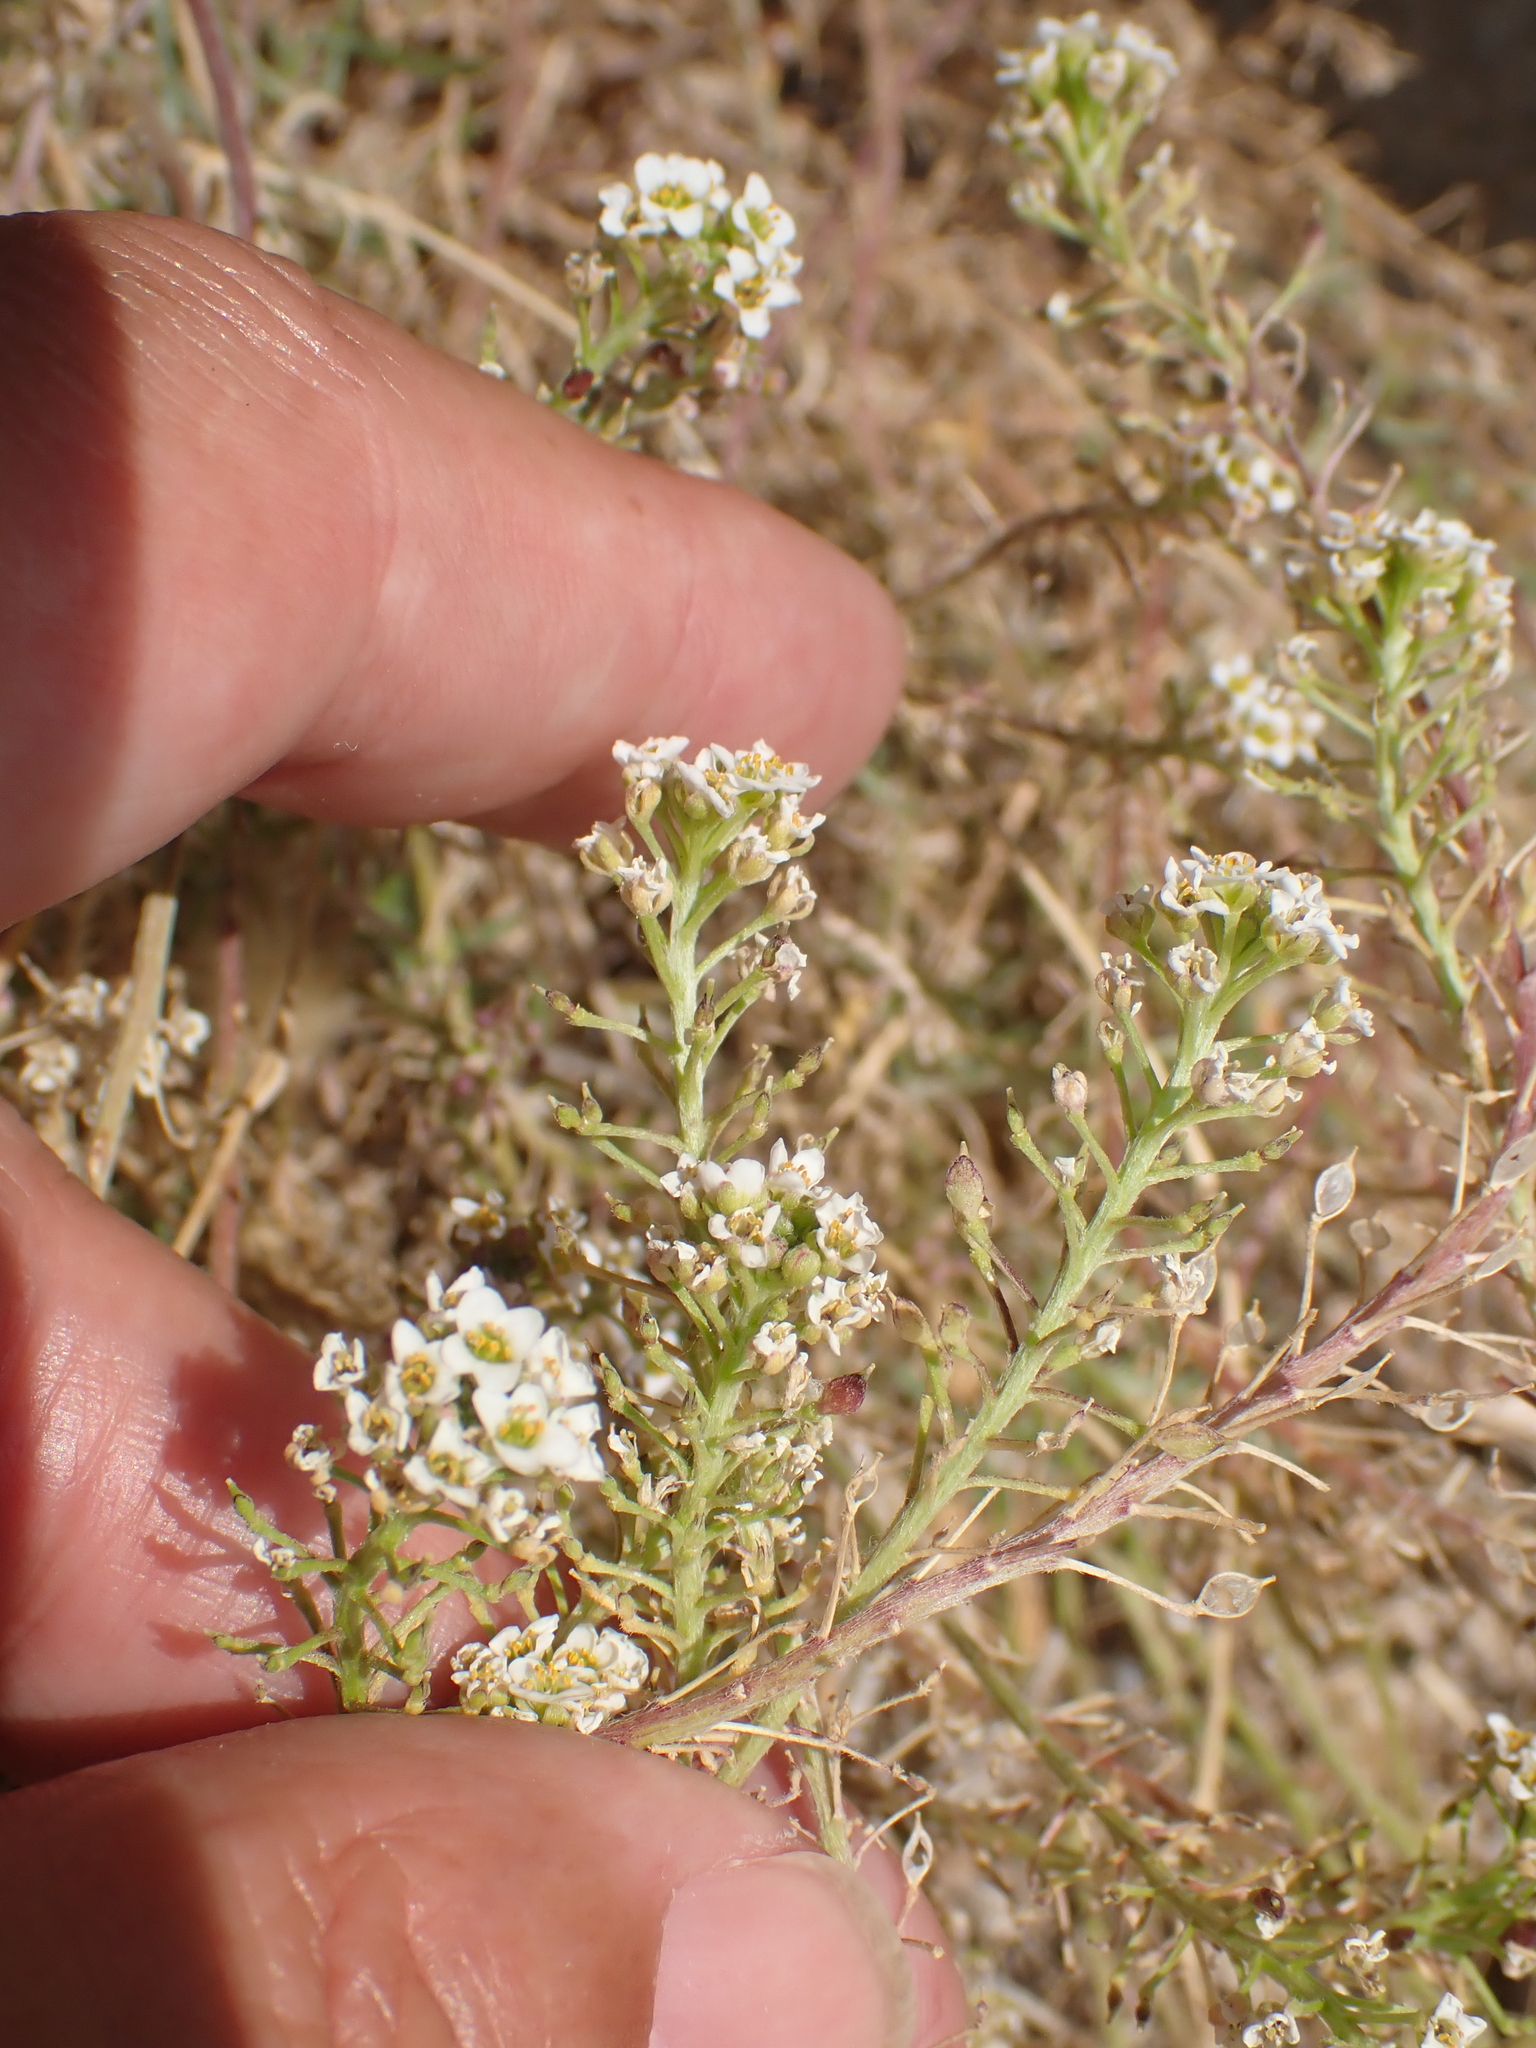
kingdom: Plantae
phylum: Tracheophyta
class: Magnoliopsida
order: Brassicales
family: Brassicaceae
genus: Lobularia
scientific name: Lobularia maritima
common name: Sweet alison
